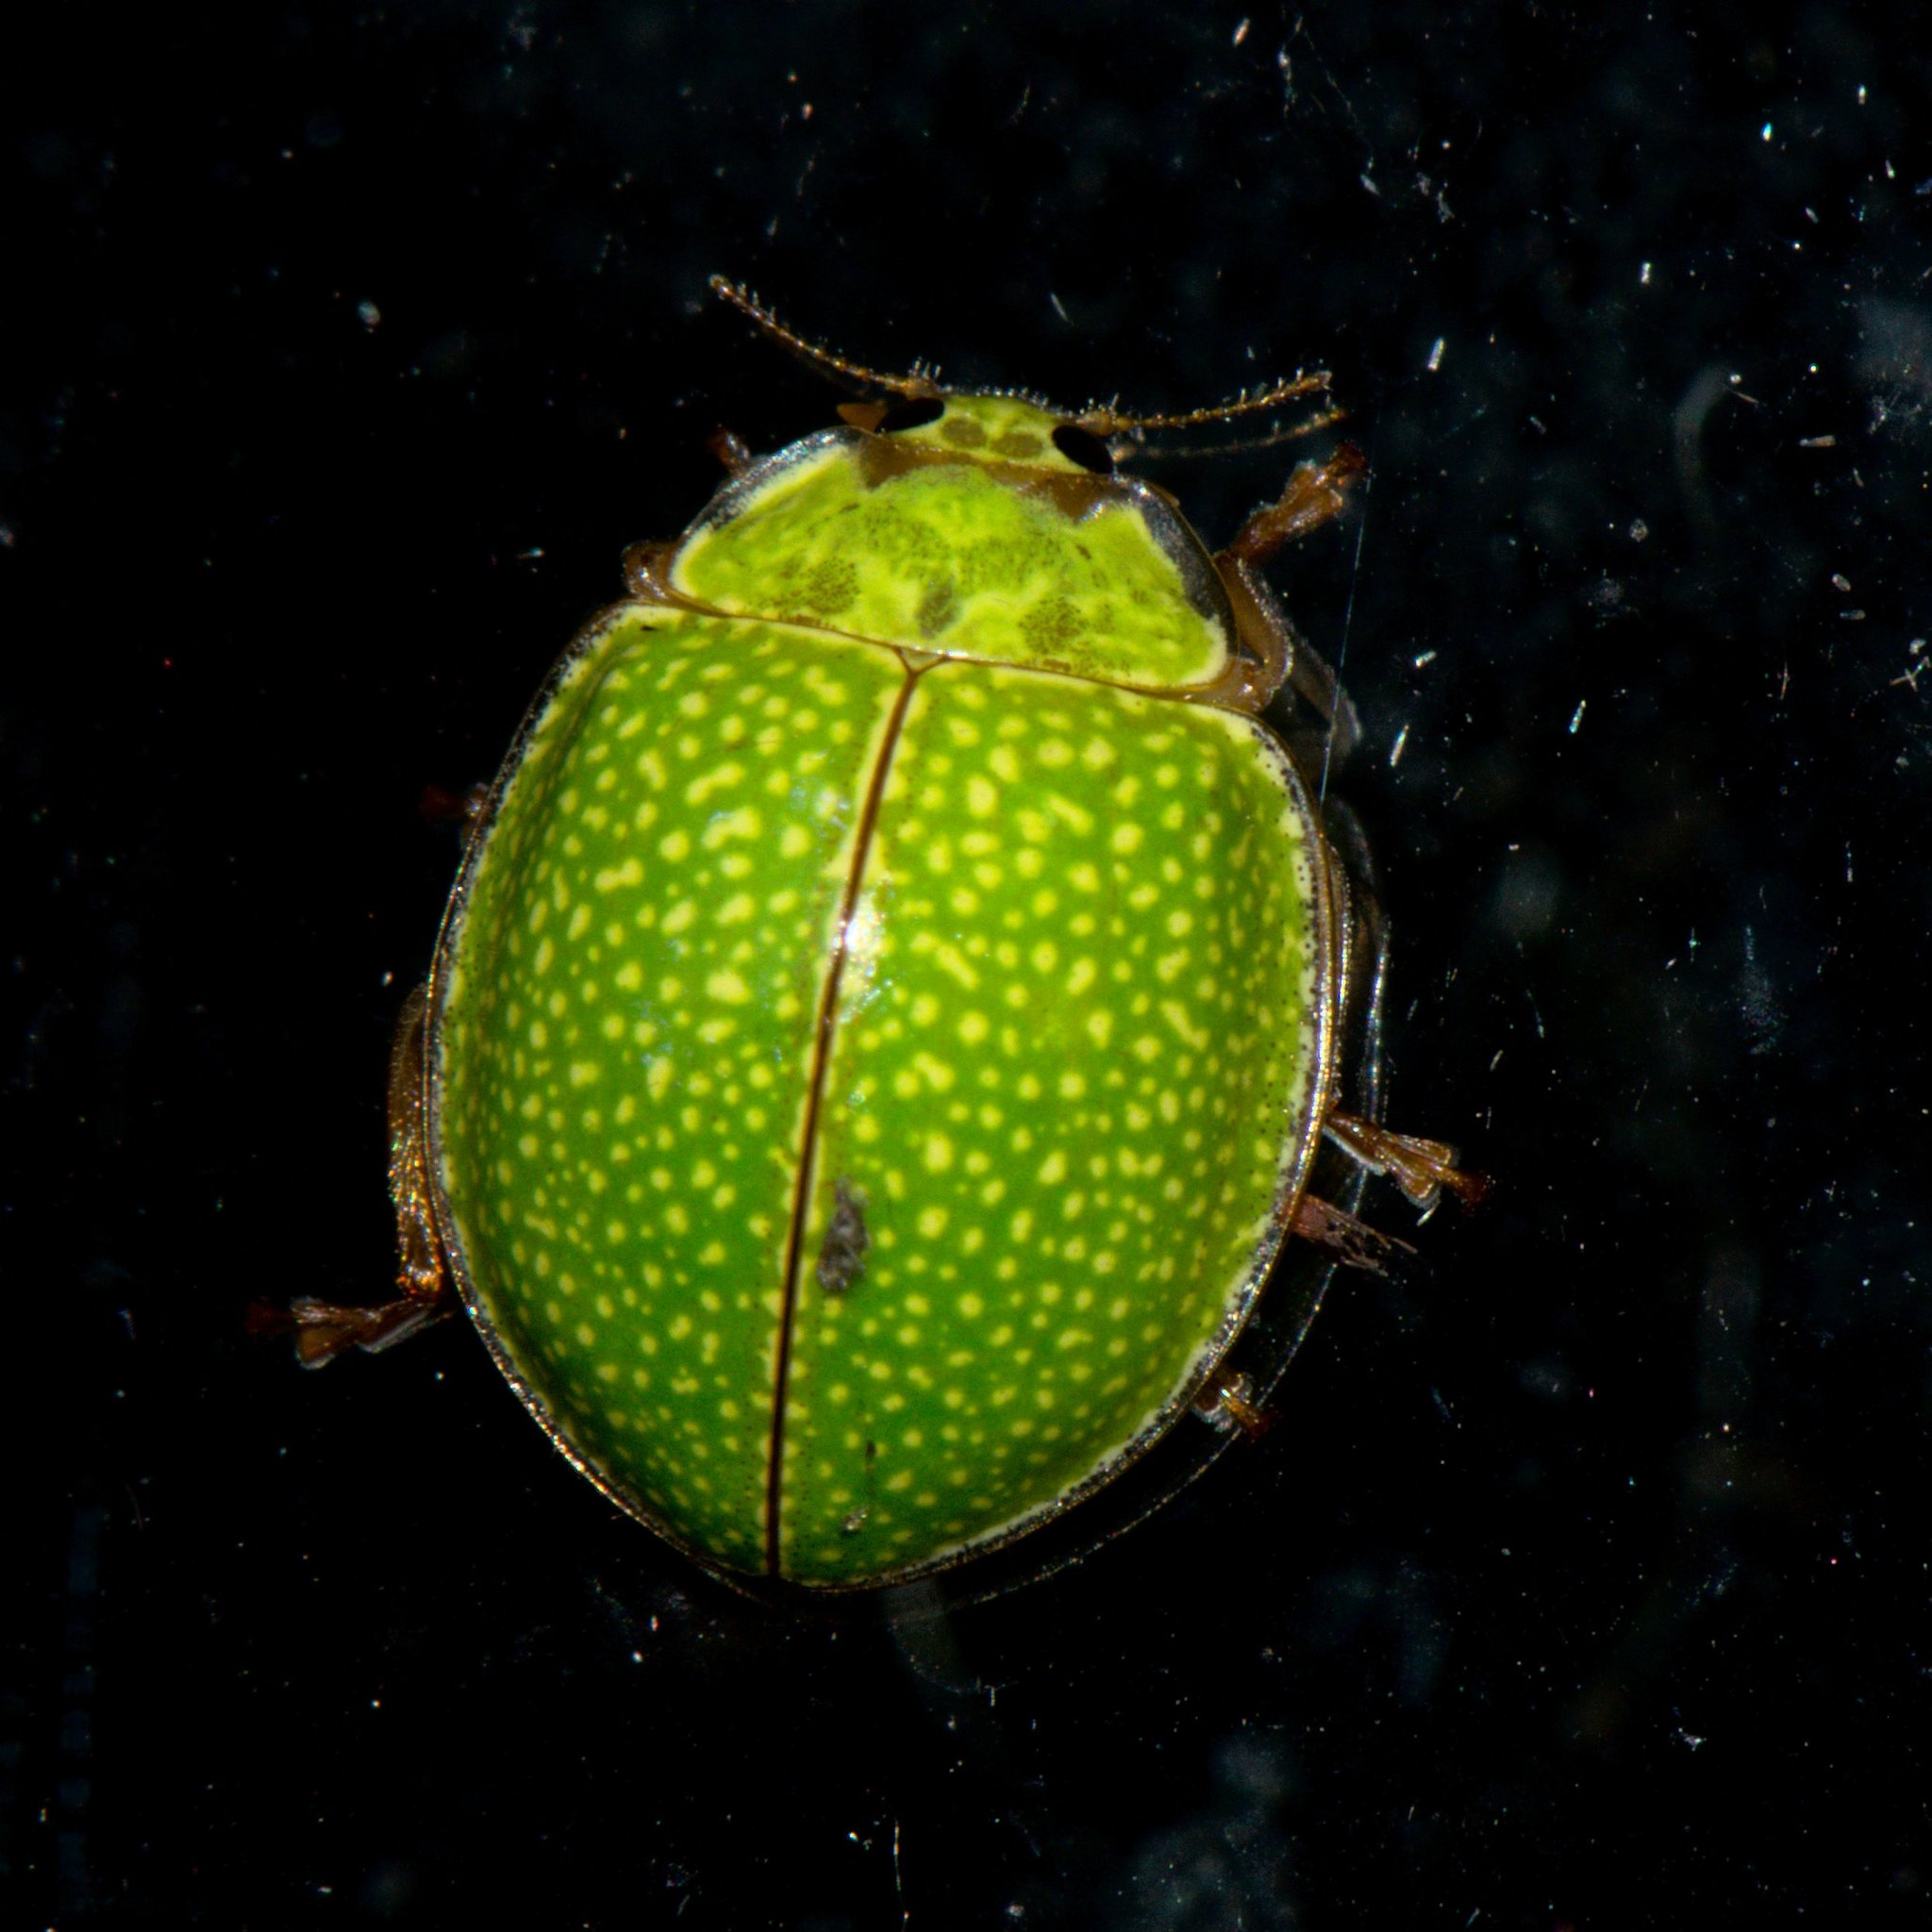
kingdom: Animalia
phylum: Arthropoda
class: Insecta
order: Coleoptera
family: Coccinellidae
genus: Calvia
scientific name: Calvia
